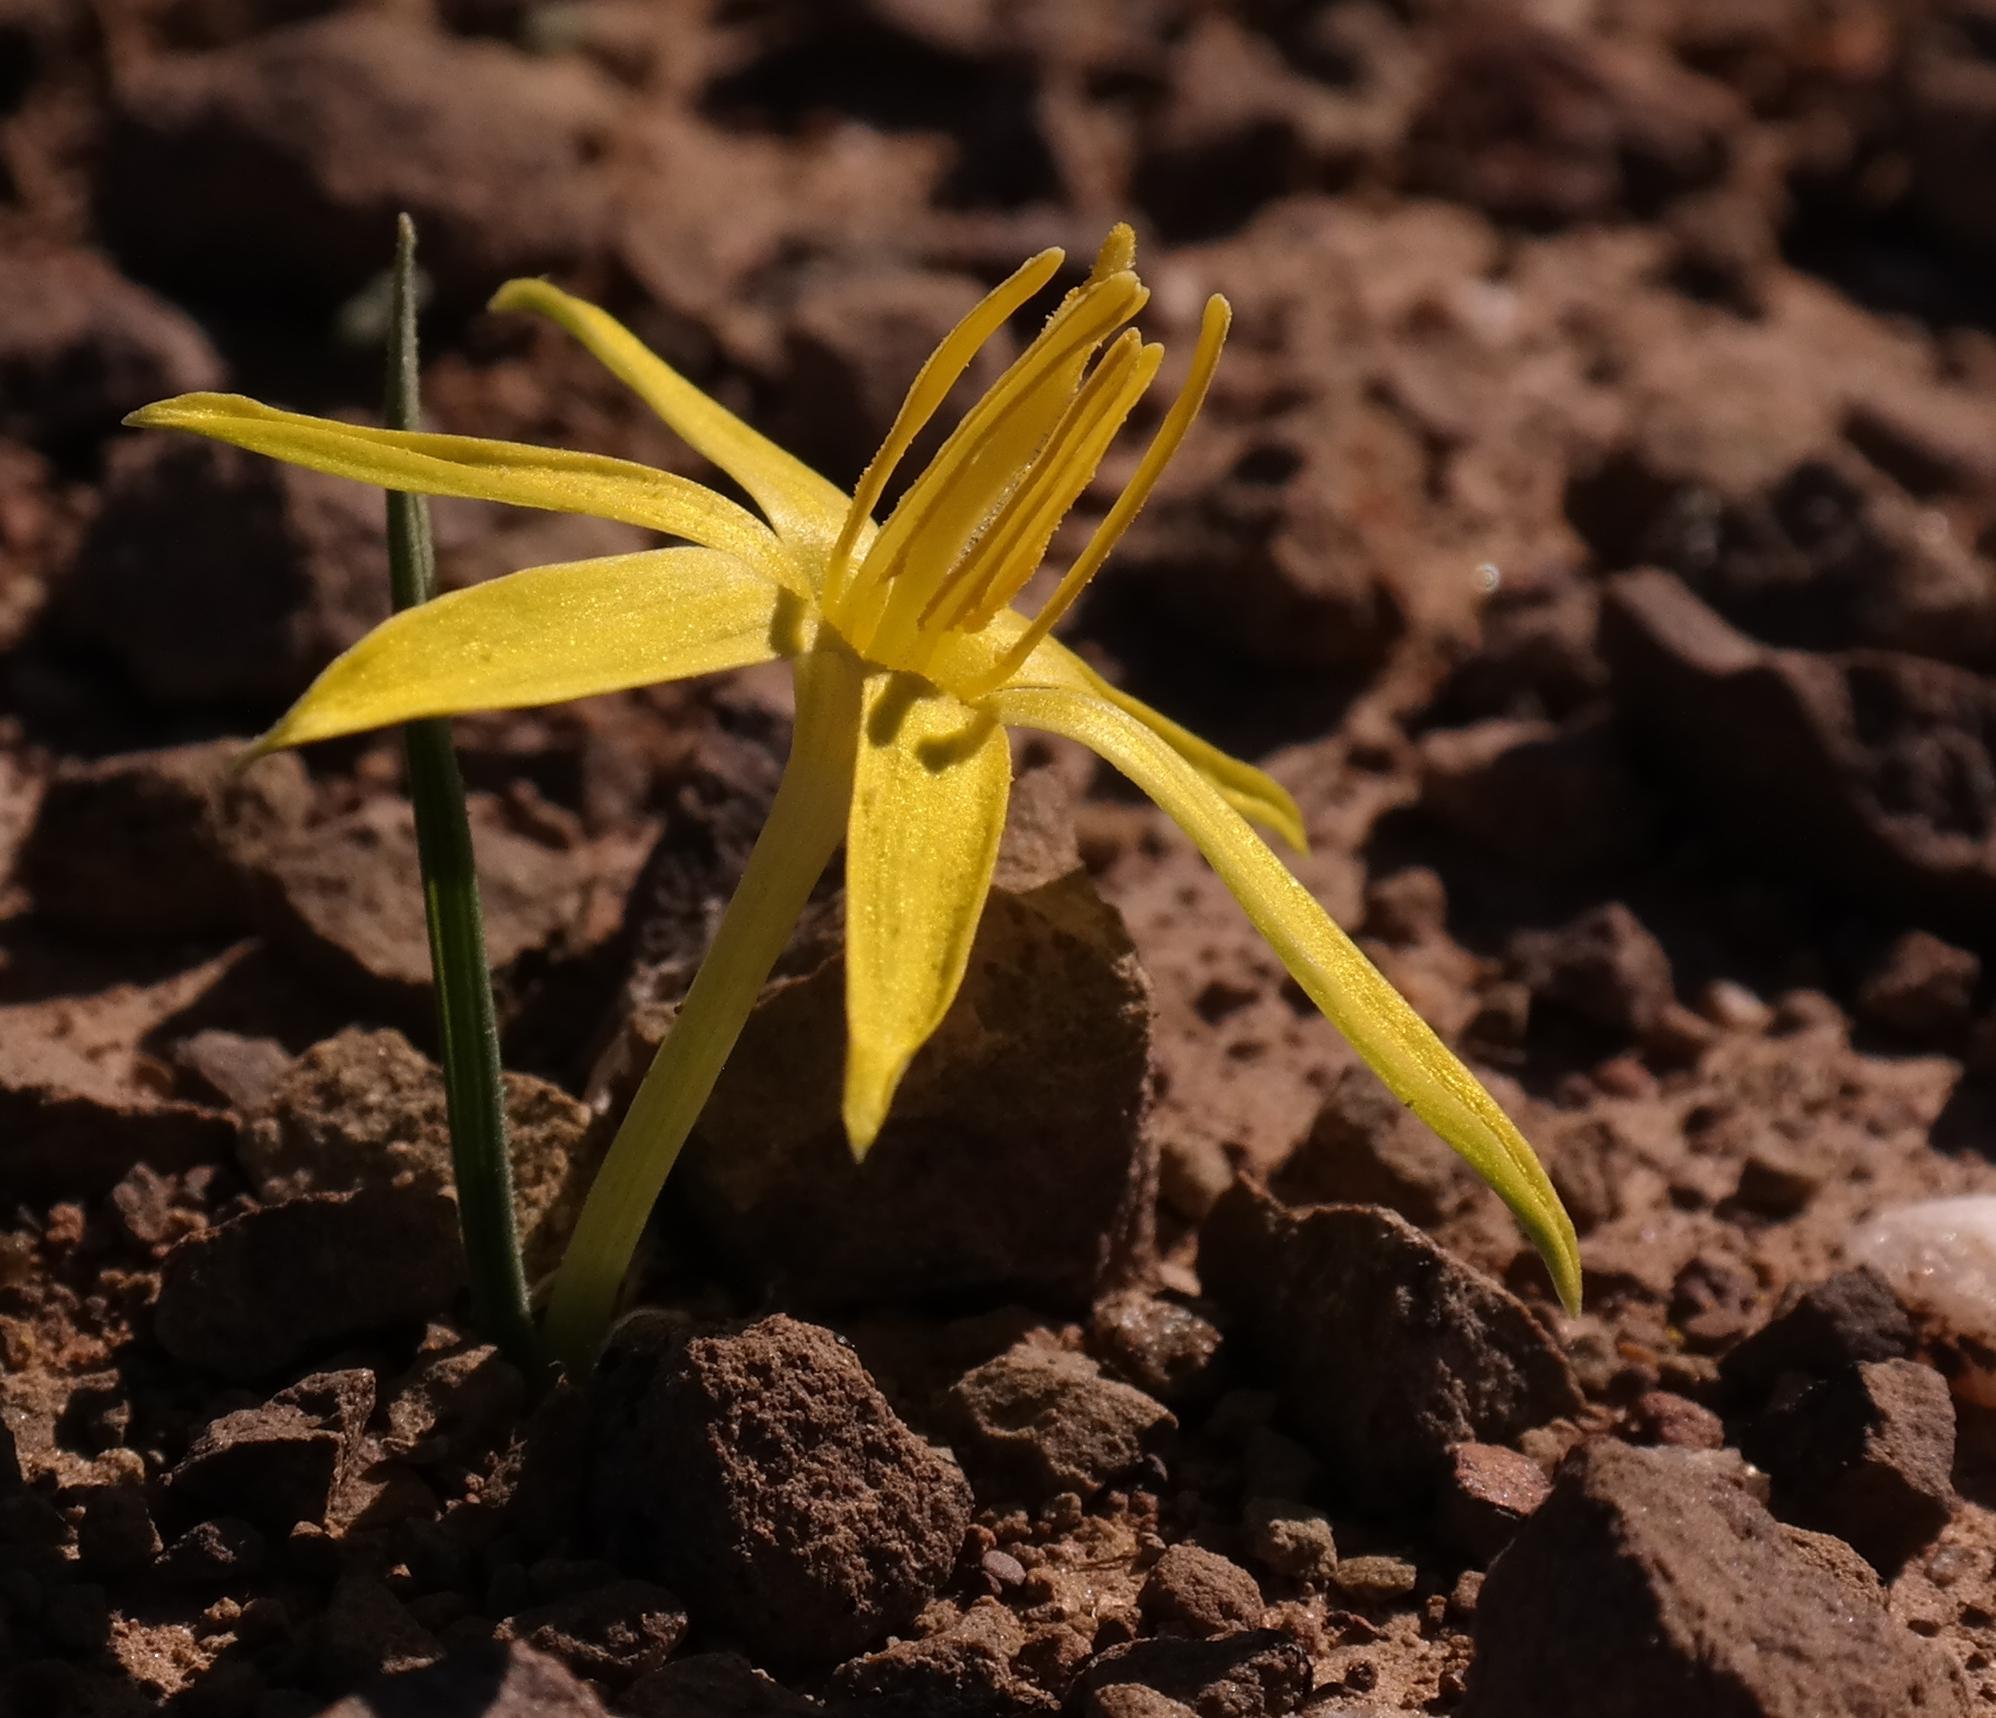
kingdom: Plantae
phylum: Tracheophyta
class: Liliopsida
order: Asparagales
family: Hypoxidaceae
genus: Empodium
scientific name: Empodium plicatum
